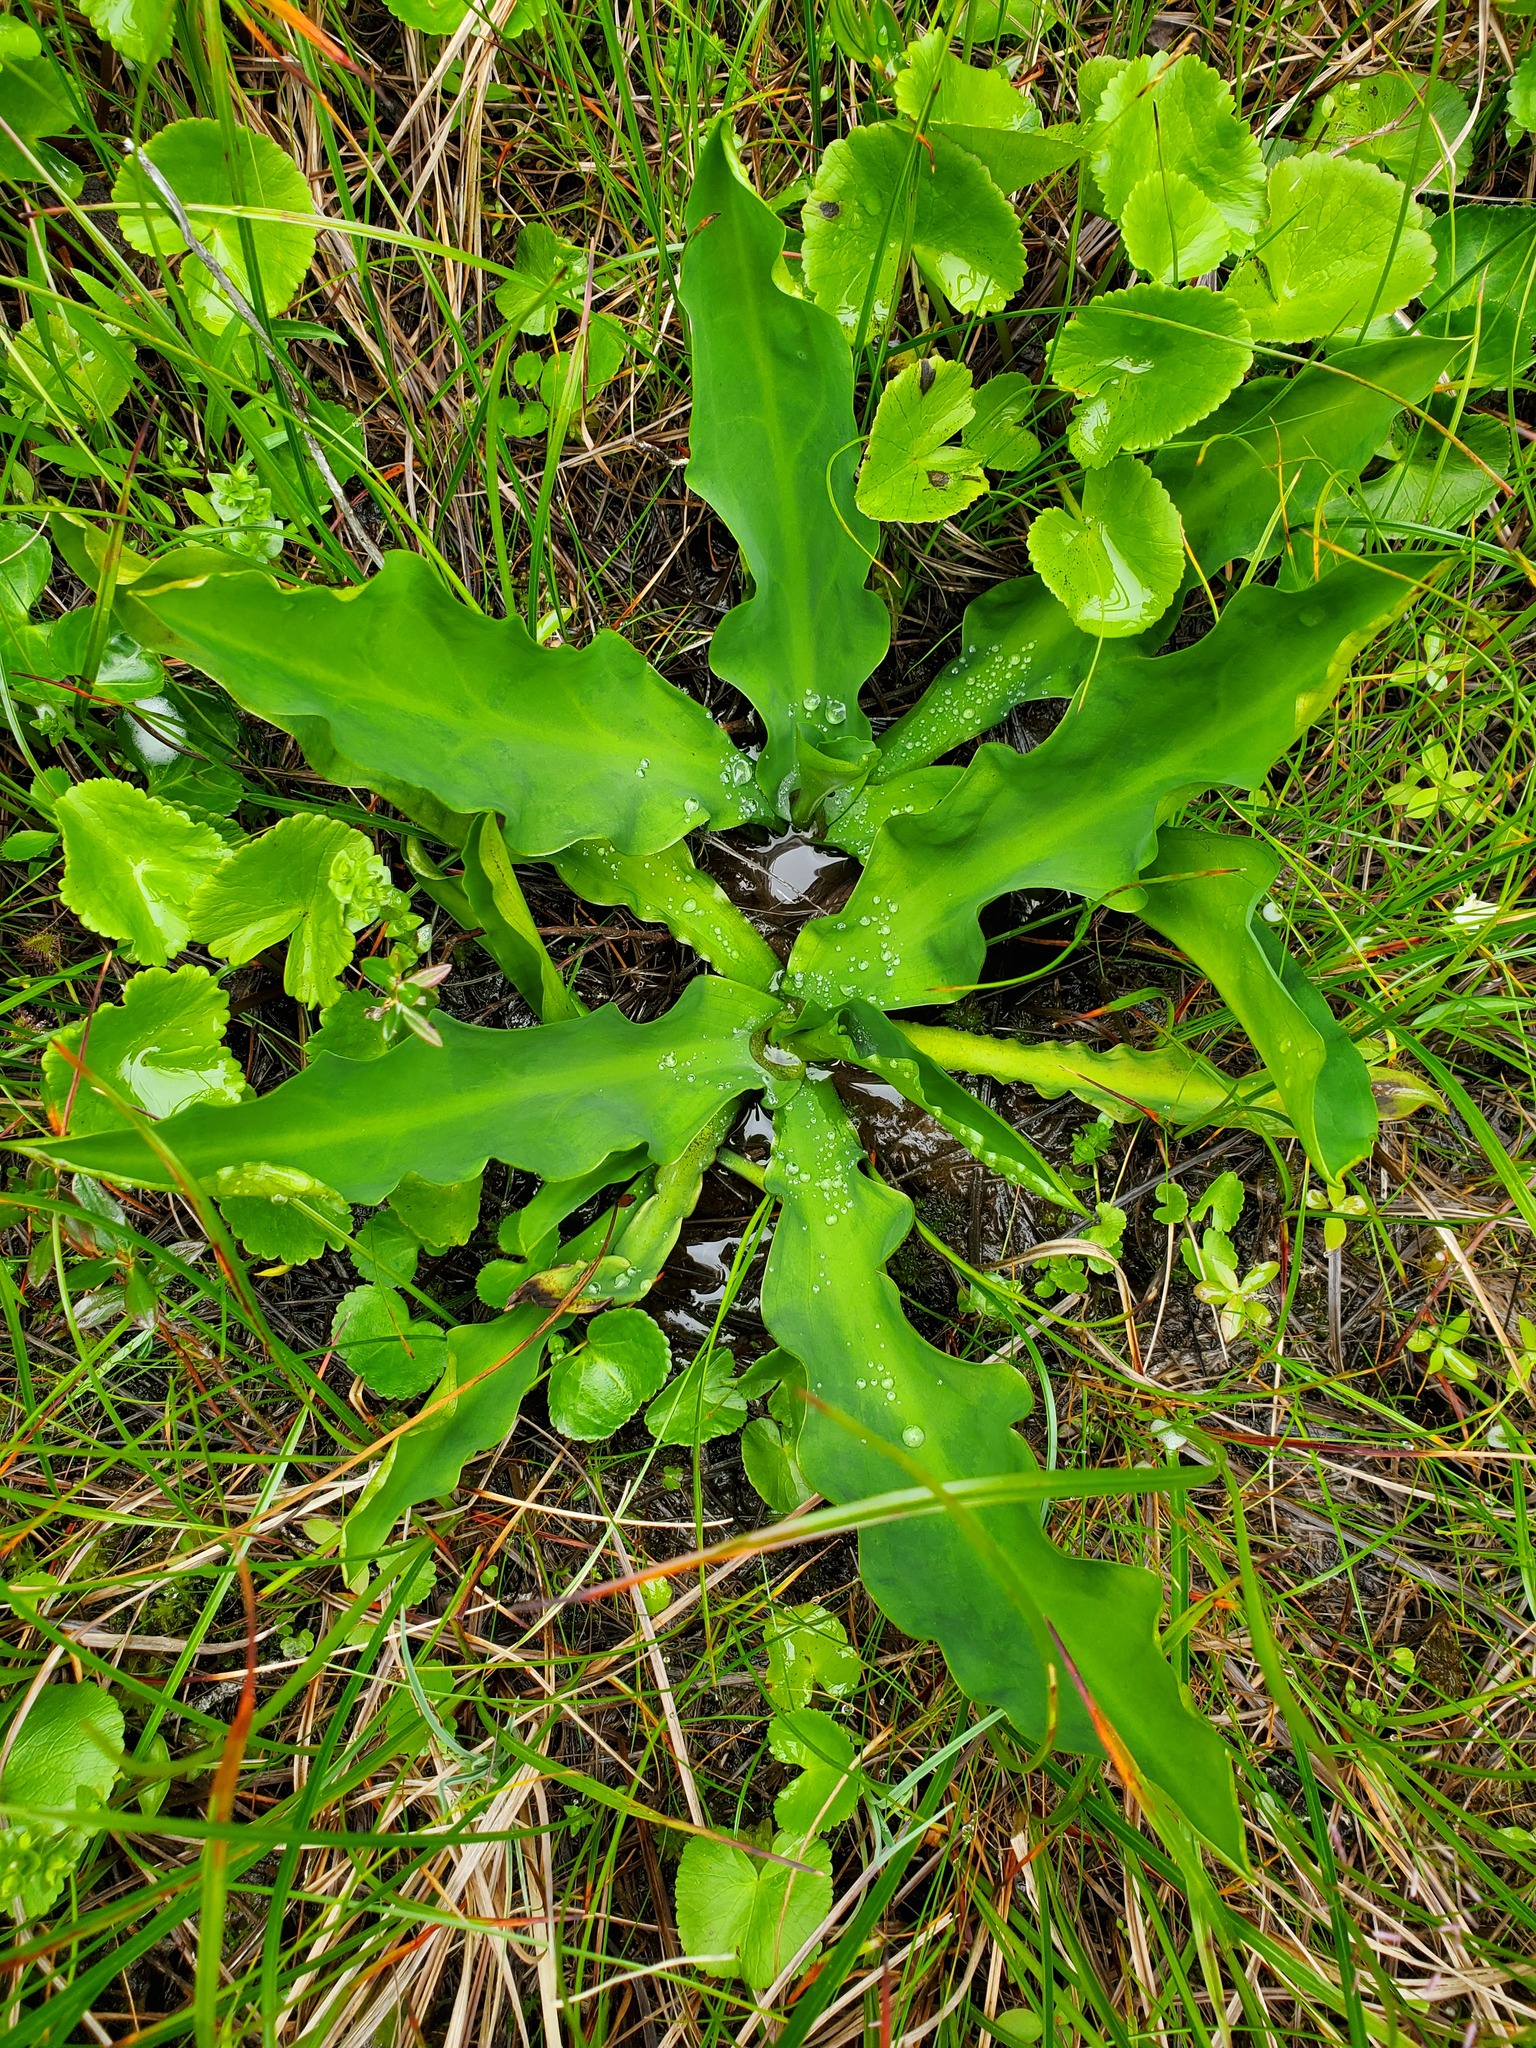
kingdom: Plantae
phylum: Tracheophyta
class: Liliopsida
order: Alismatales
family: Araceae
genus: Lysichiton
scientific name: Lysichiton americanus
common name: American skunk cabbage
